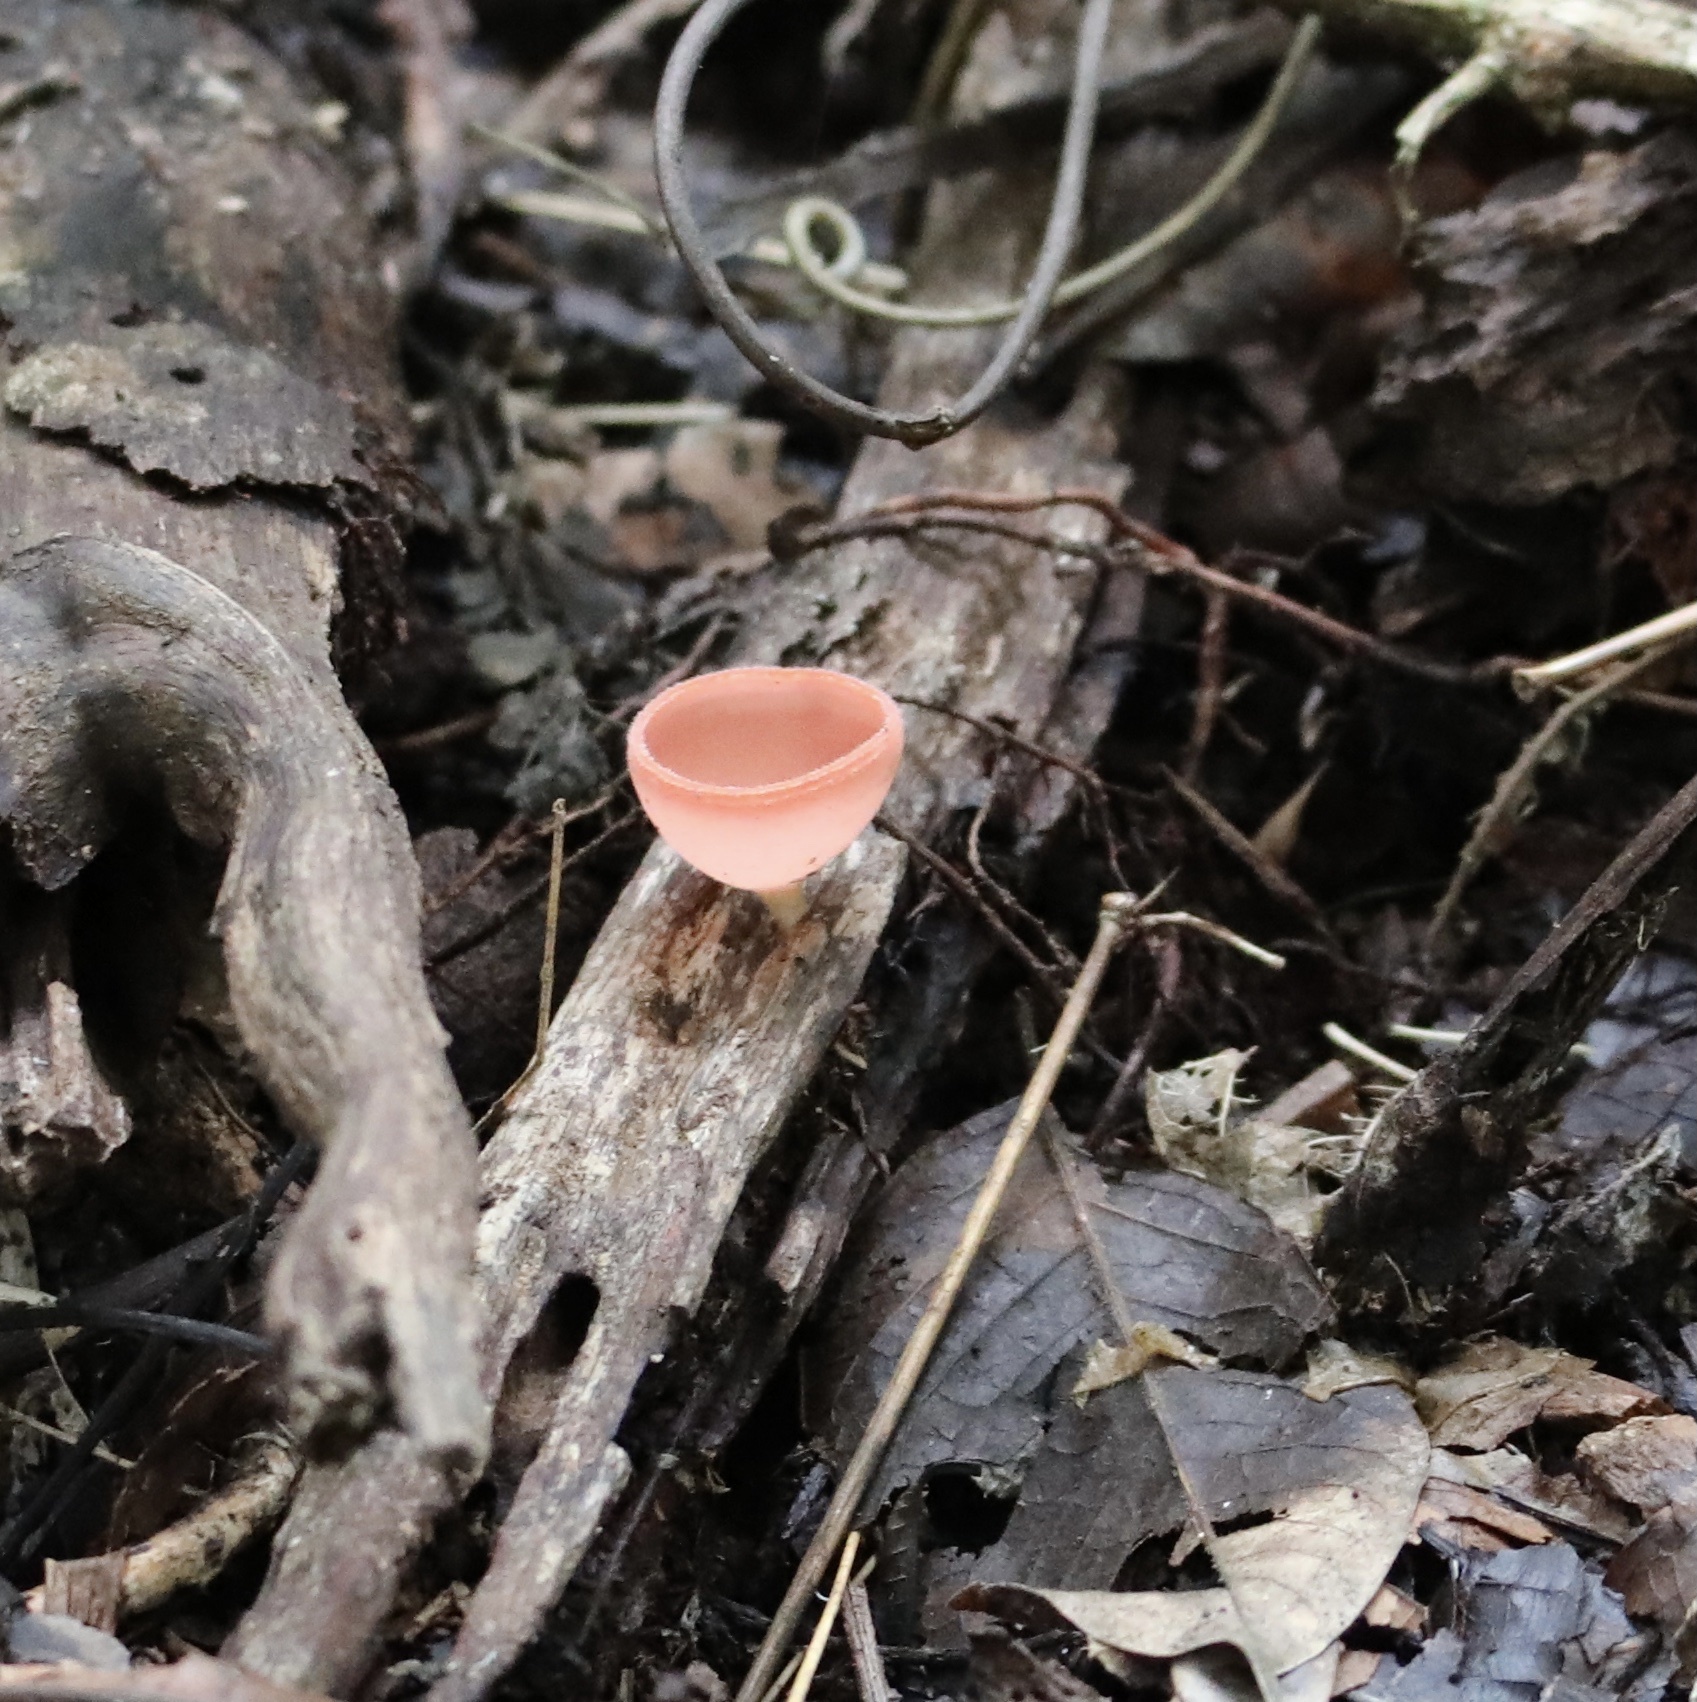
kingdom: Fungi
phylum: Ascomycota
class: Pezizomycetes
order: Pezizales
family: Sarcoscyphaceae
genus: Cookeina
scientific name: Cookeina speciosa
